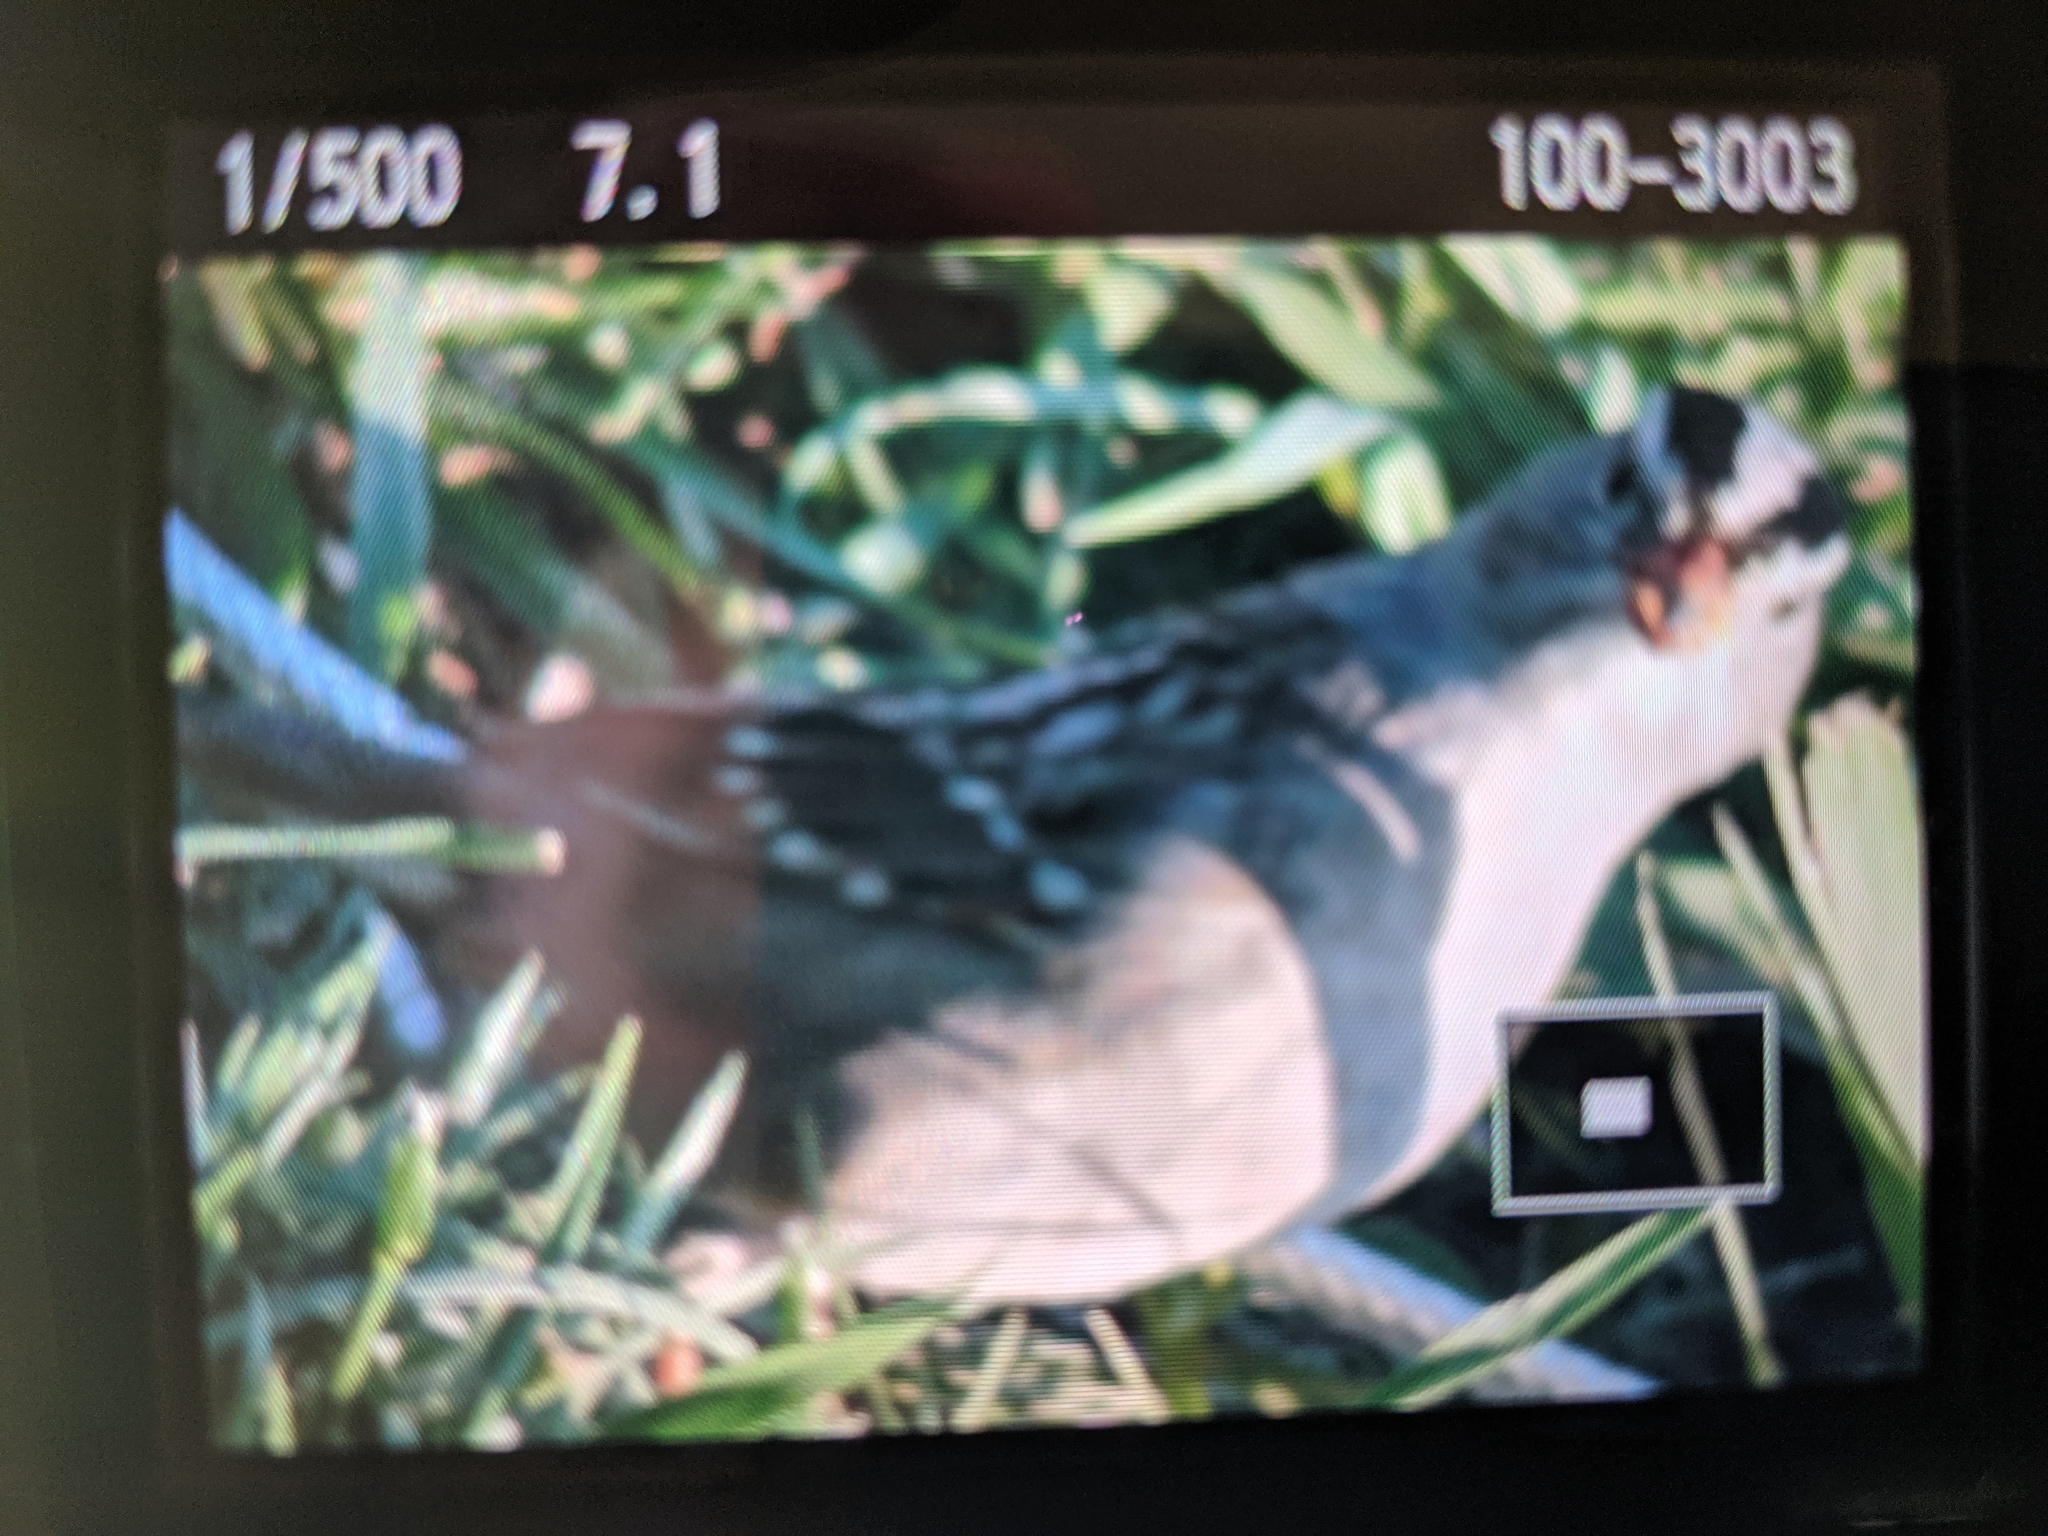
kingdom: Animalia
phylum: Chordata
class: Aves
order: Passeriformes
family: Passerellidae
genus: Zonotrichia
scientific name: Zonotrichia leucophrys
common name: White-crowned sparrow
